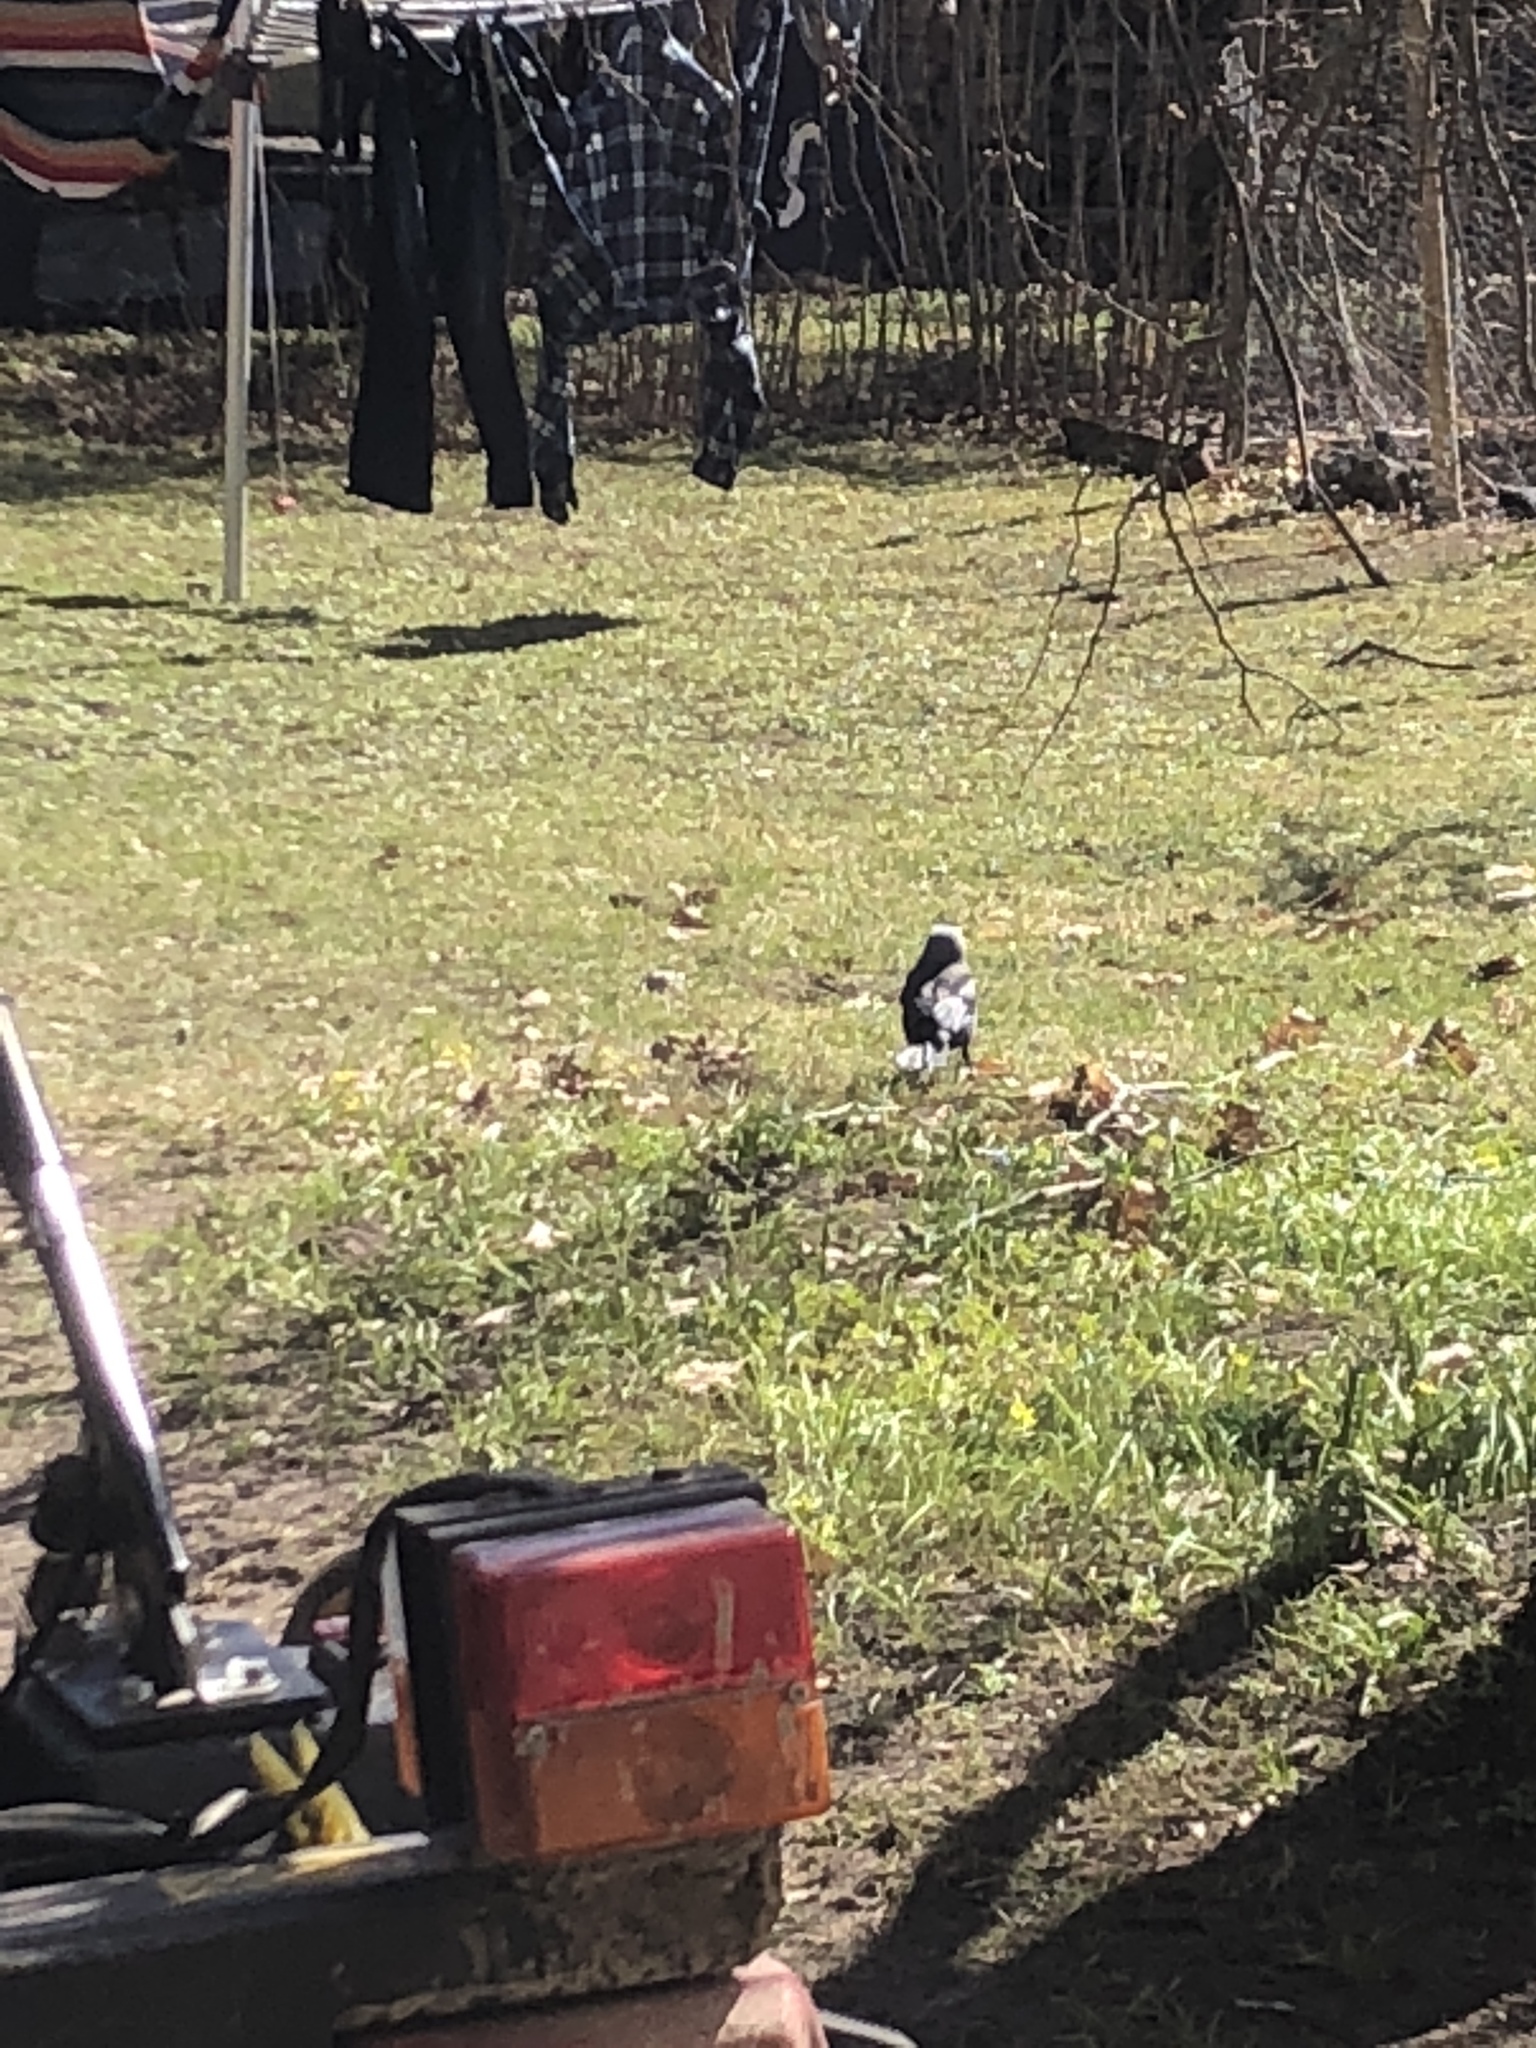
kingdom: Animalia
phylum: Chordata
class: Aves
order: Passeriformes
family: Corvidae
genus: Coloeus
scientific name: Coloeus monedula
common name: Western jackdaw
